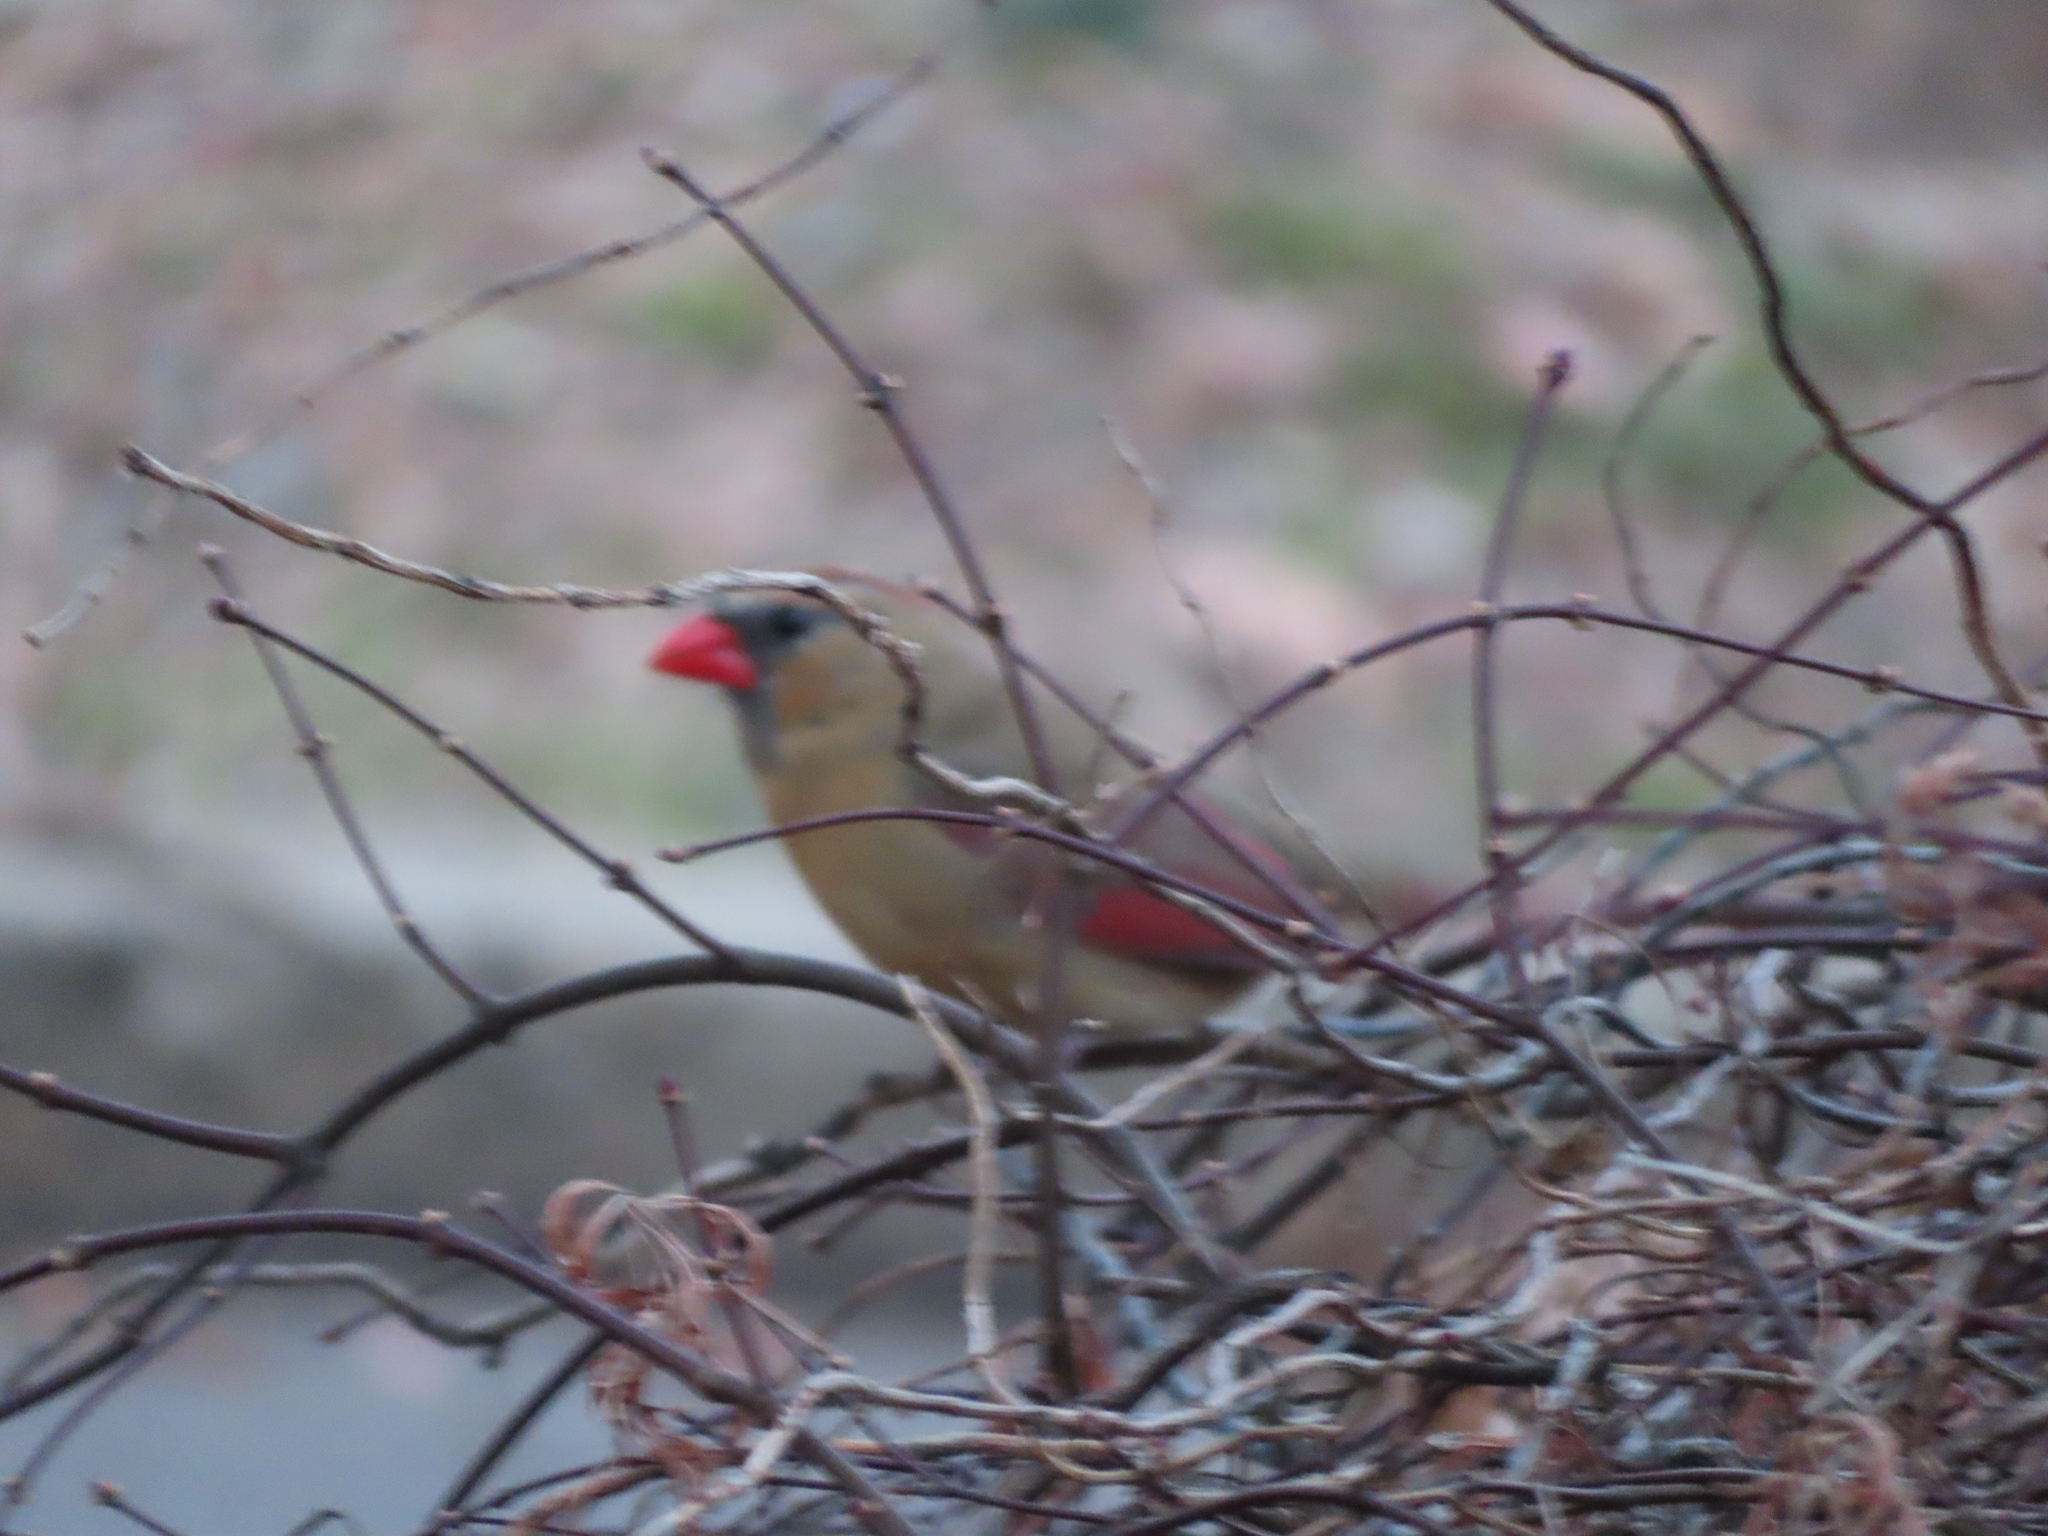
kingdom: Animalia
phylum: Chordata
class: Aves
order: Passeriformes
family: Cardinalidae
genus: Cardinalis
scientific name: Cardinalis cardinalis
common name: Northern cardinal
